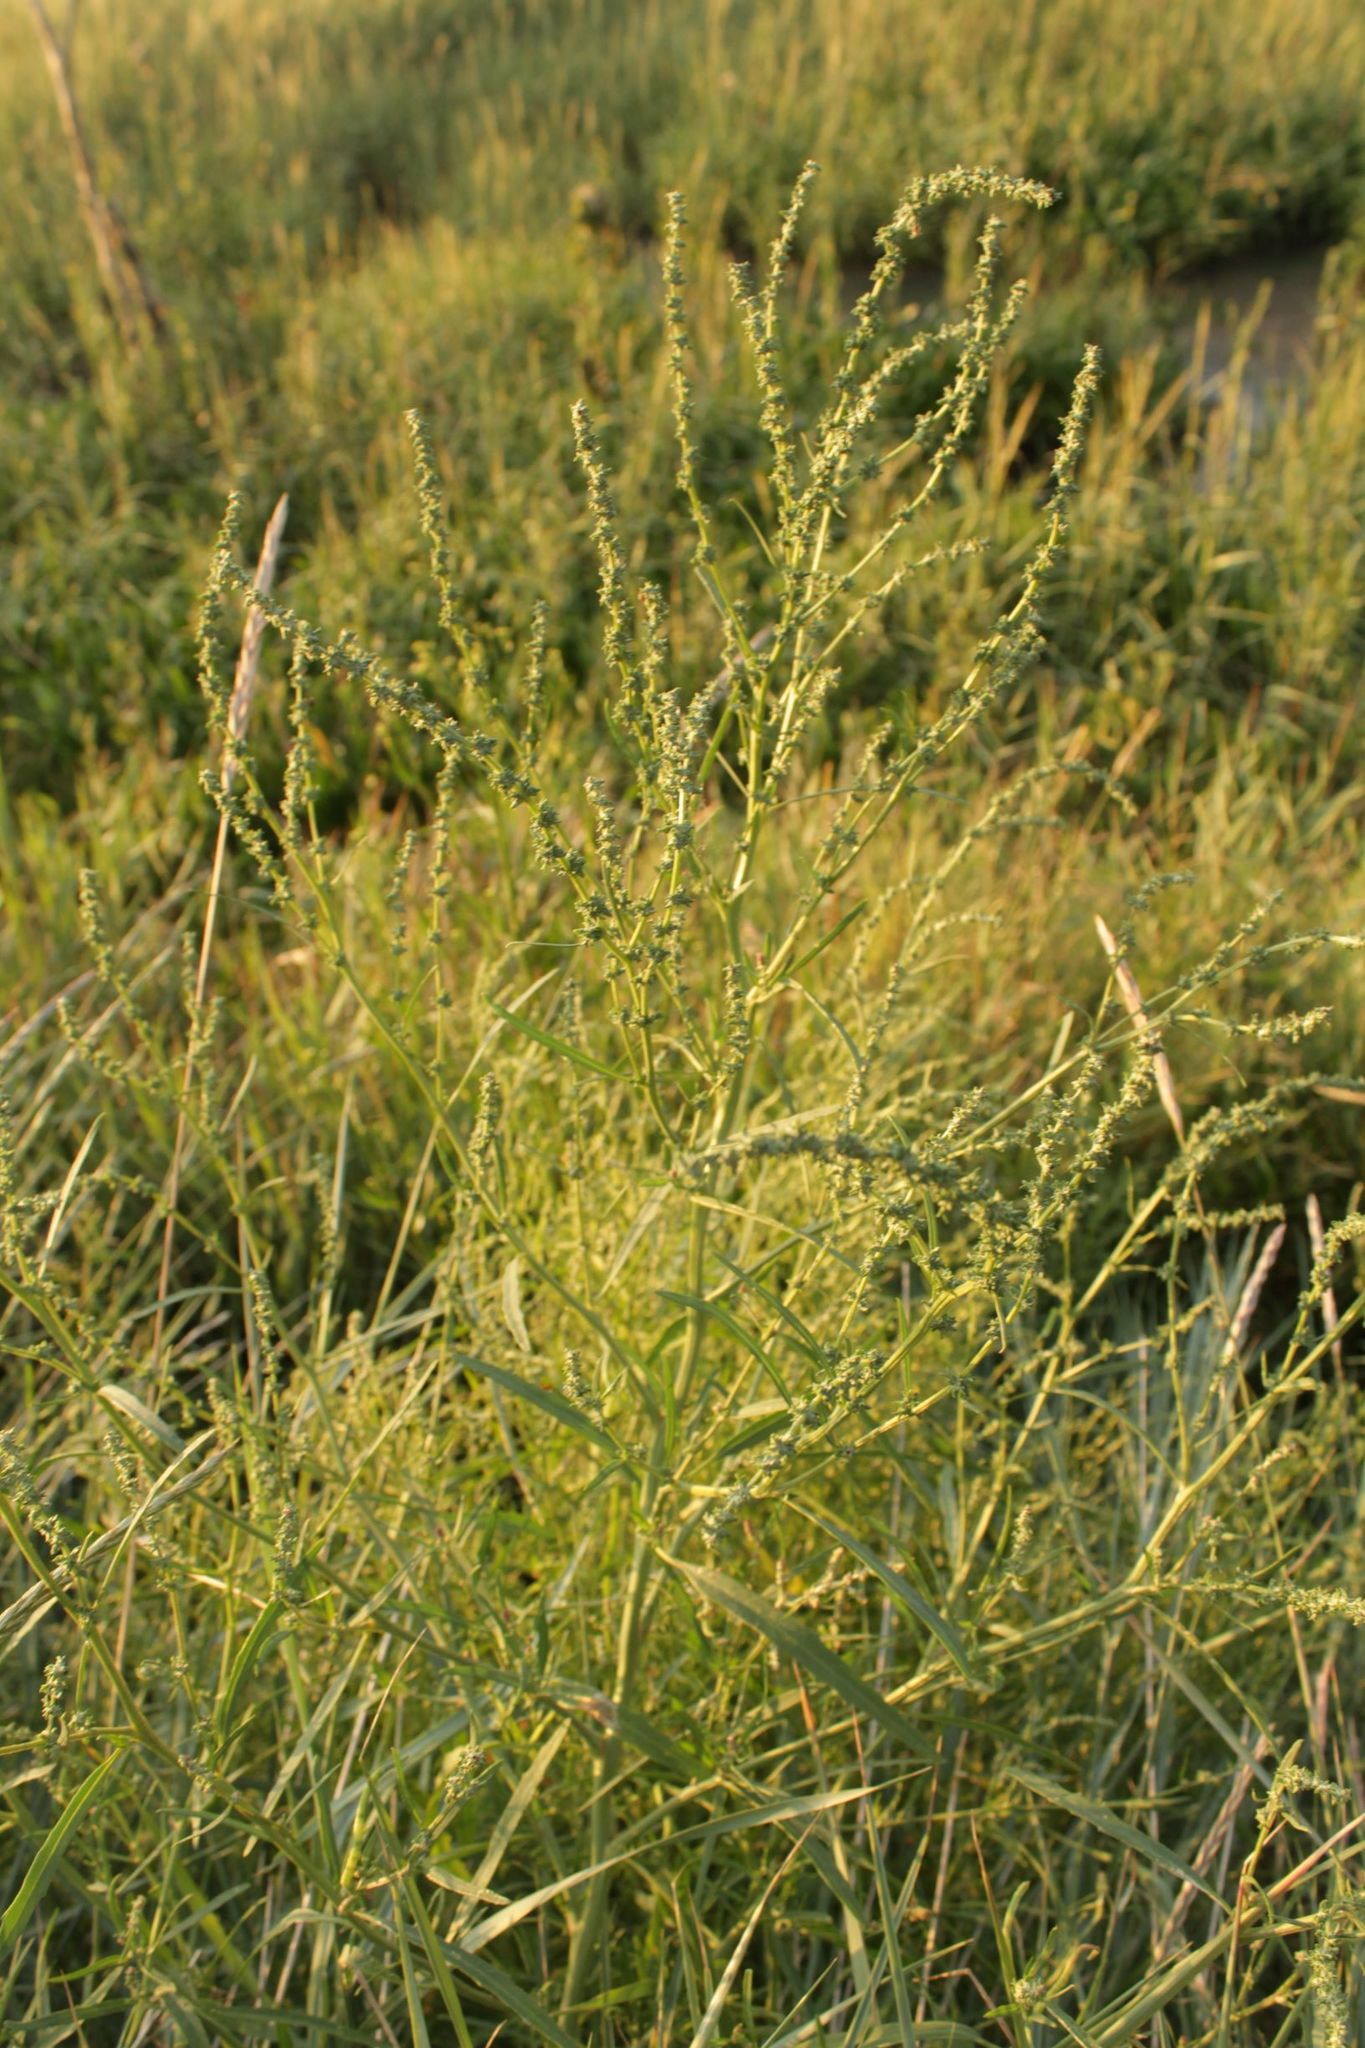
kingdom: Plantae
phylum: Tracheophyta
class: Magnoliopsida
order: Caryophyllales
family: Amaranthaceae
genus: Atriplex
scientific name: Atriplex littoralis
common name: Grass-leaved orache
